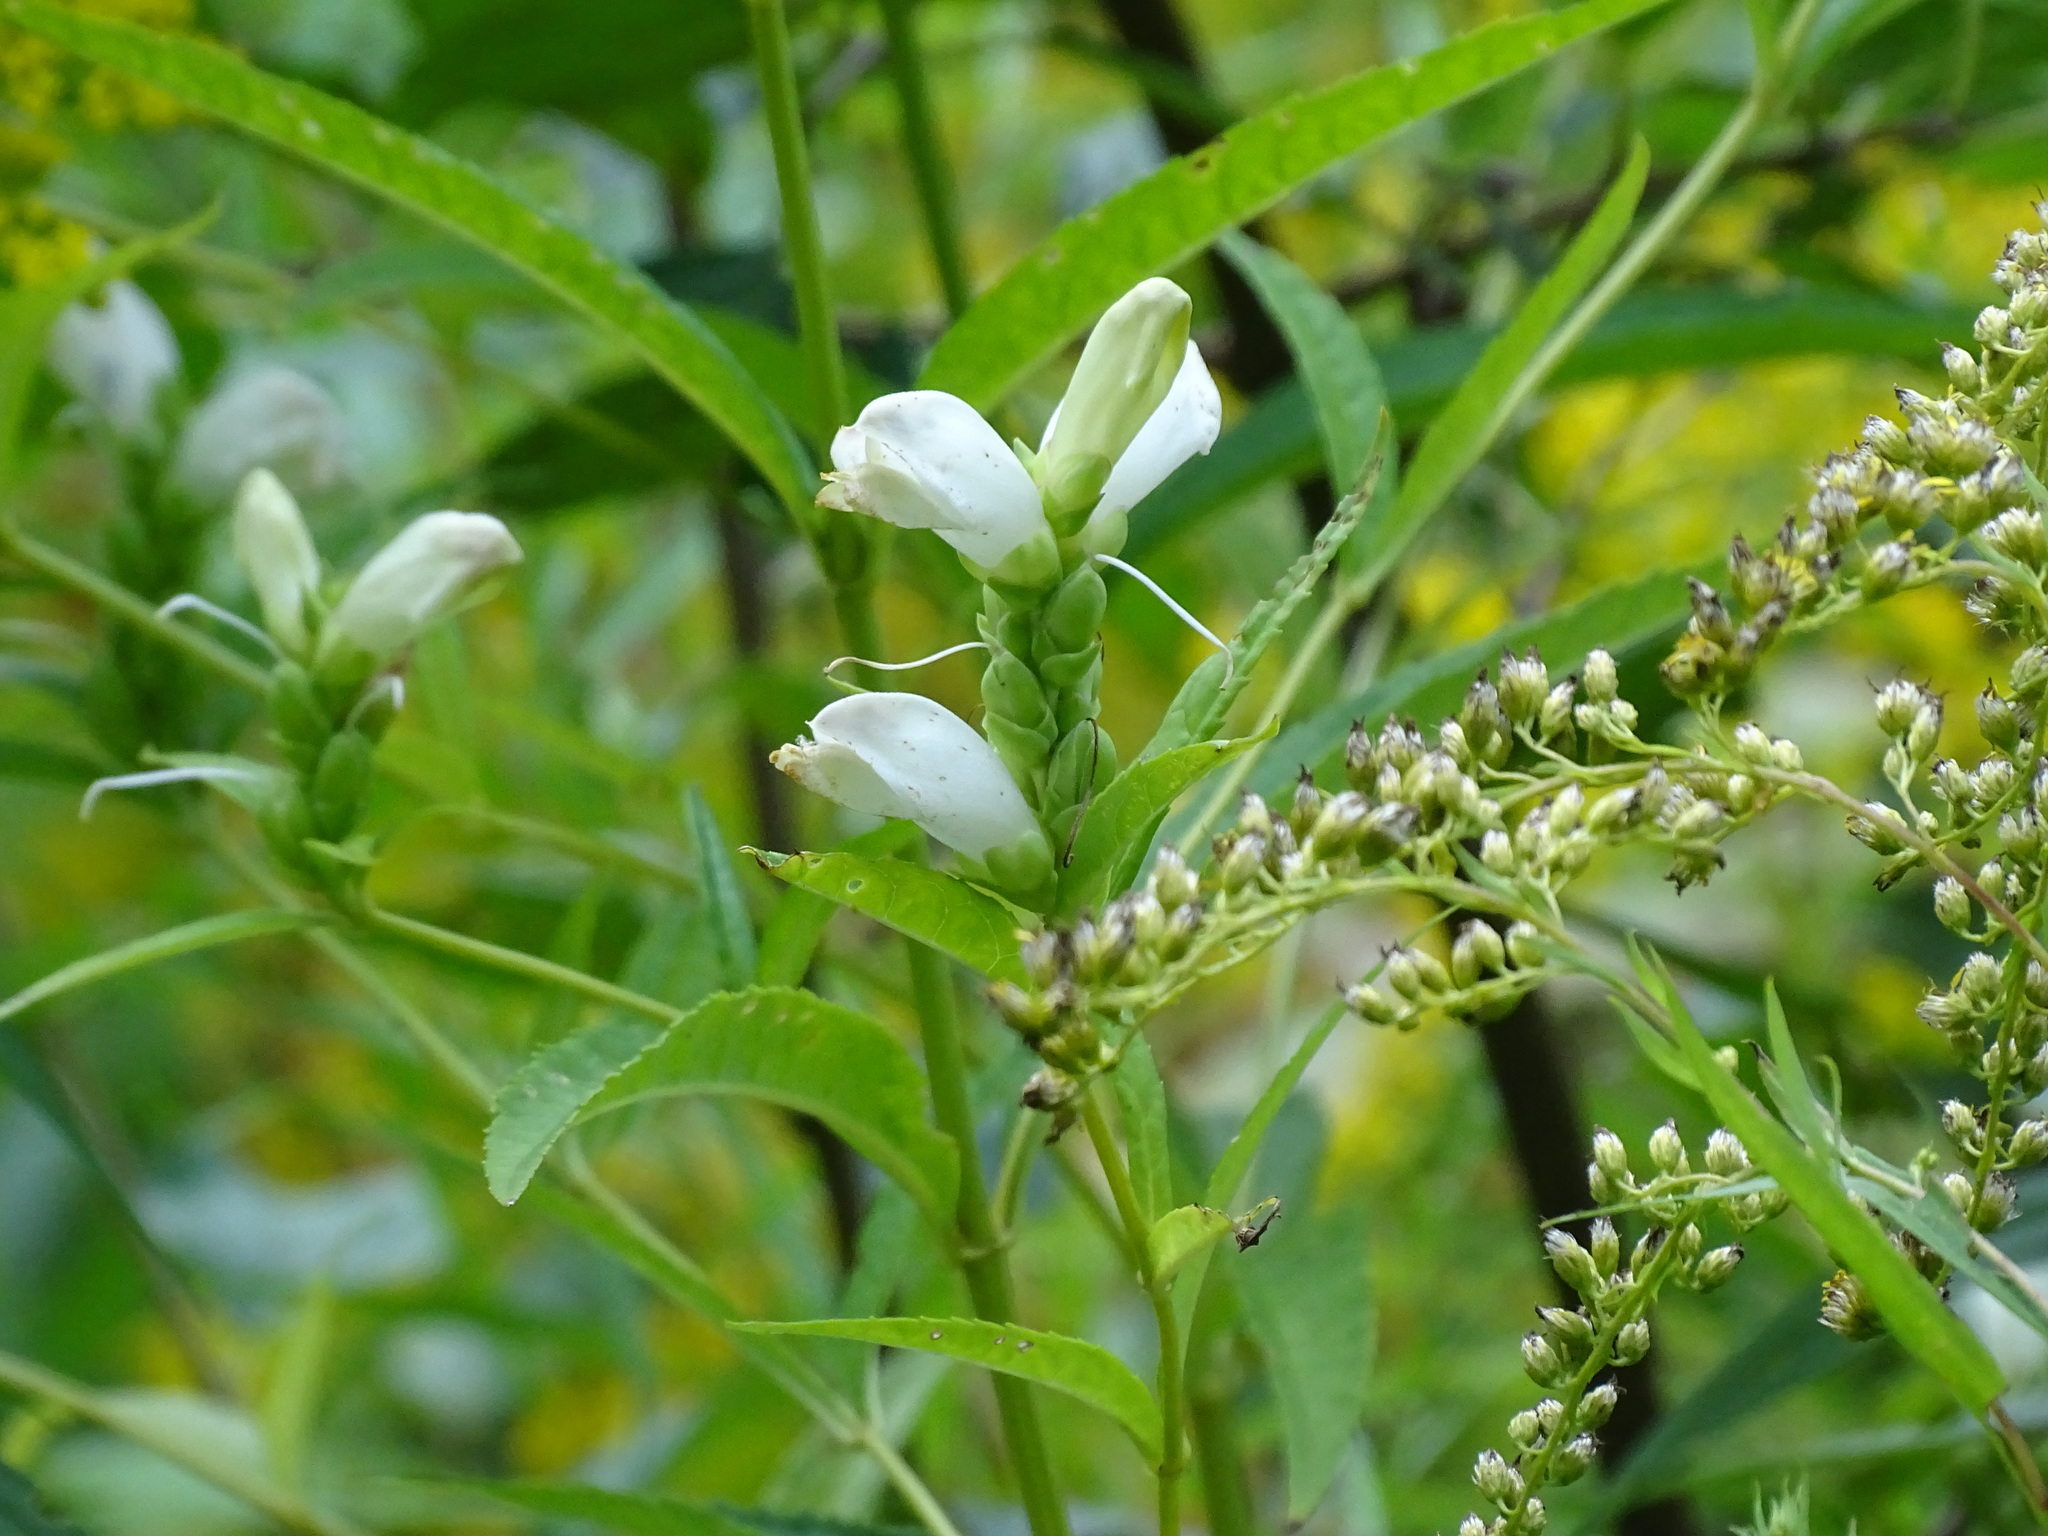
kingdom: Plantae
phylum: Tracheophyta
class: Magnoliopsida
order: Lamiales
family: Plantaginaceae
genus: Chelone
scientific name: Chelone glabra
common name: Snakehead
